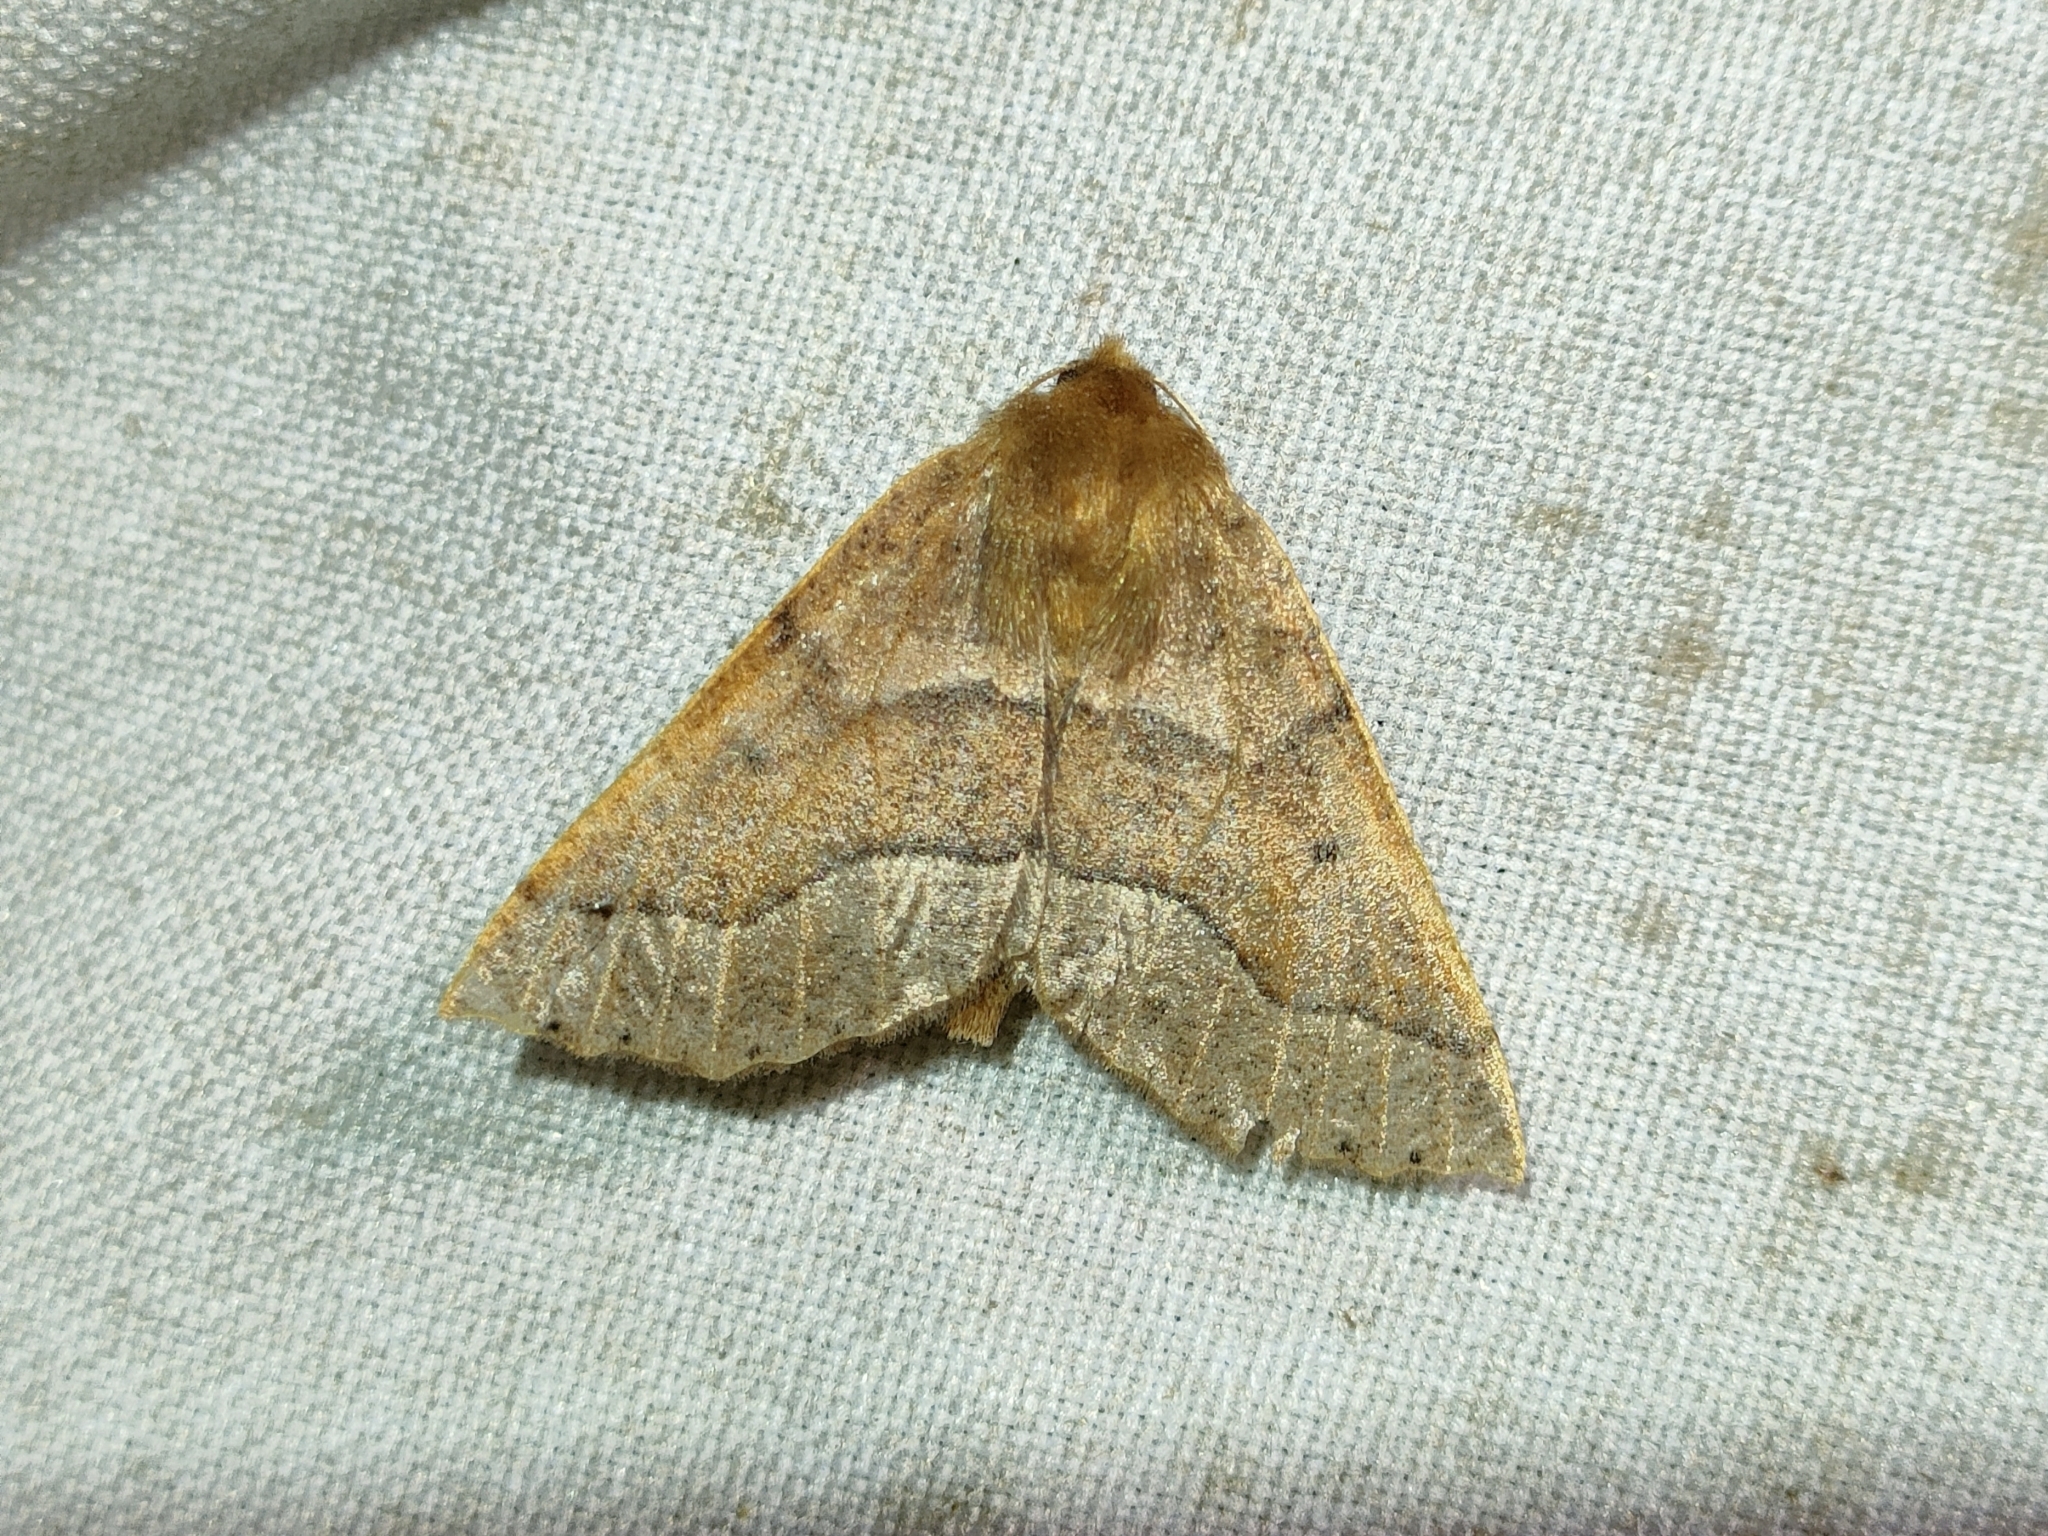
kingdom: Animalia
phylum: Arthropoda
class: Insecta
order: Lepidoptera
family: Geometridae
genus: Crocallis
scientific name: Crocallis tusciaria
